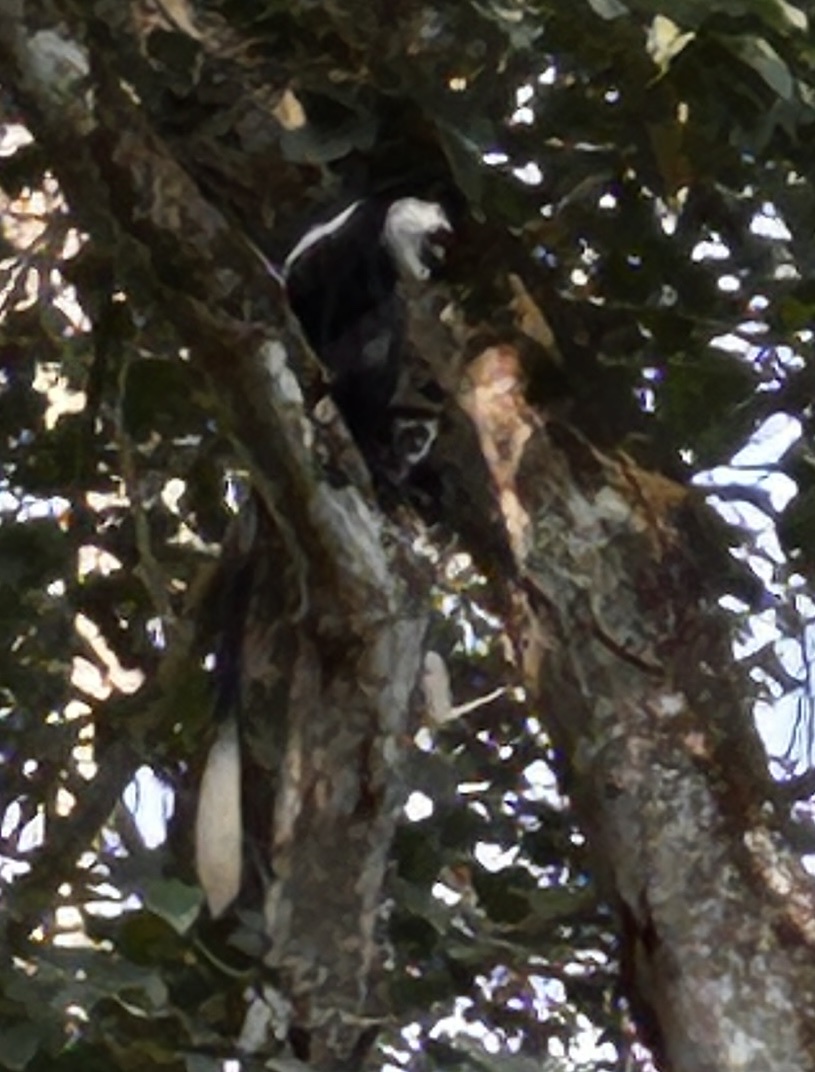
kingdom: Animalia
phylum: Chordata
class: Mammalia
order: Primates
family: Cercopithecidae
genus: Colobus
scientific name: Colobus guereza
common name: Mantled guereza
